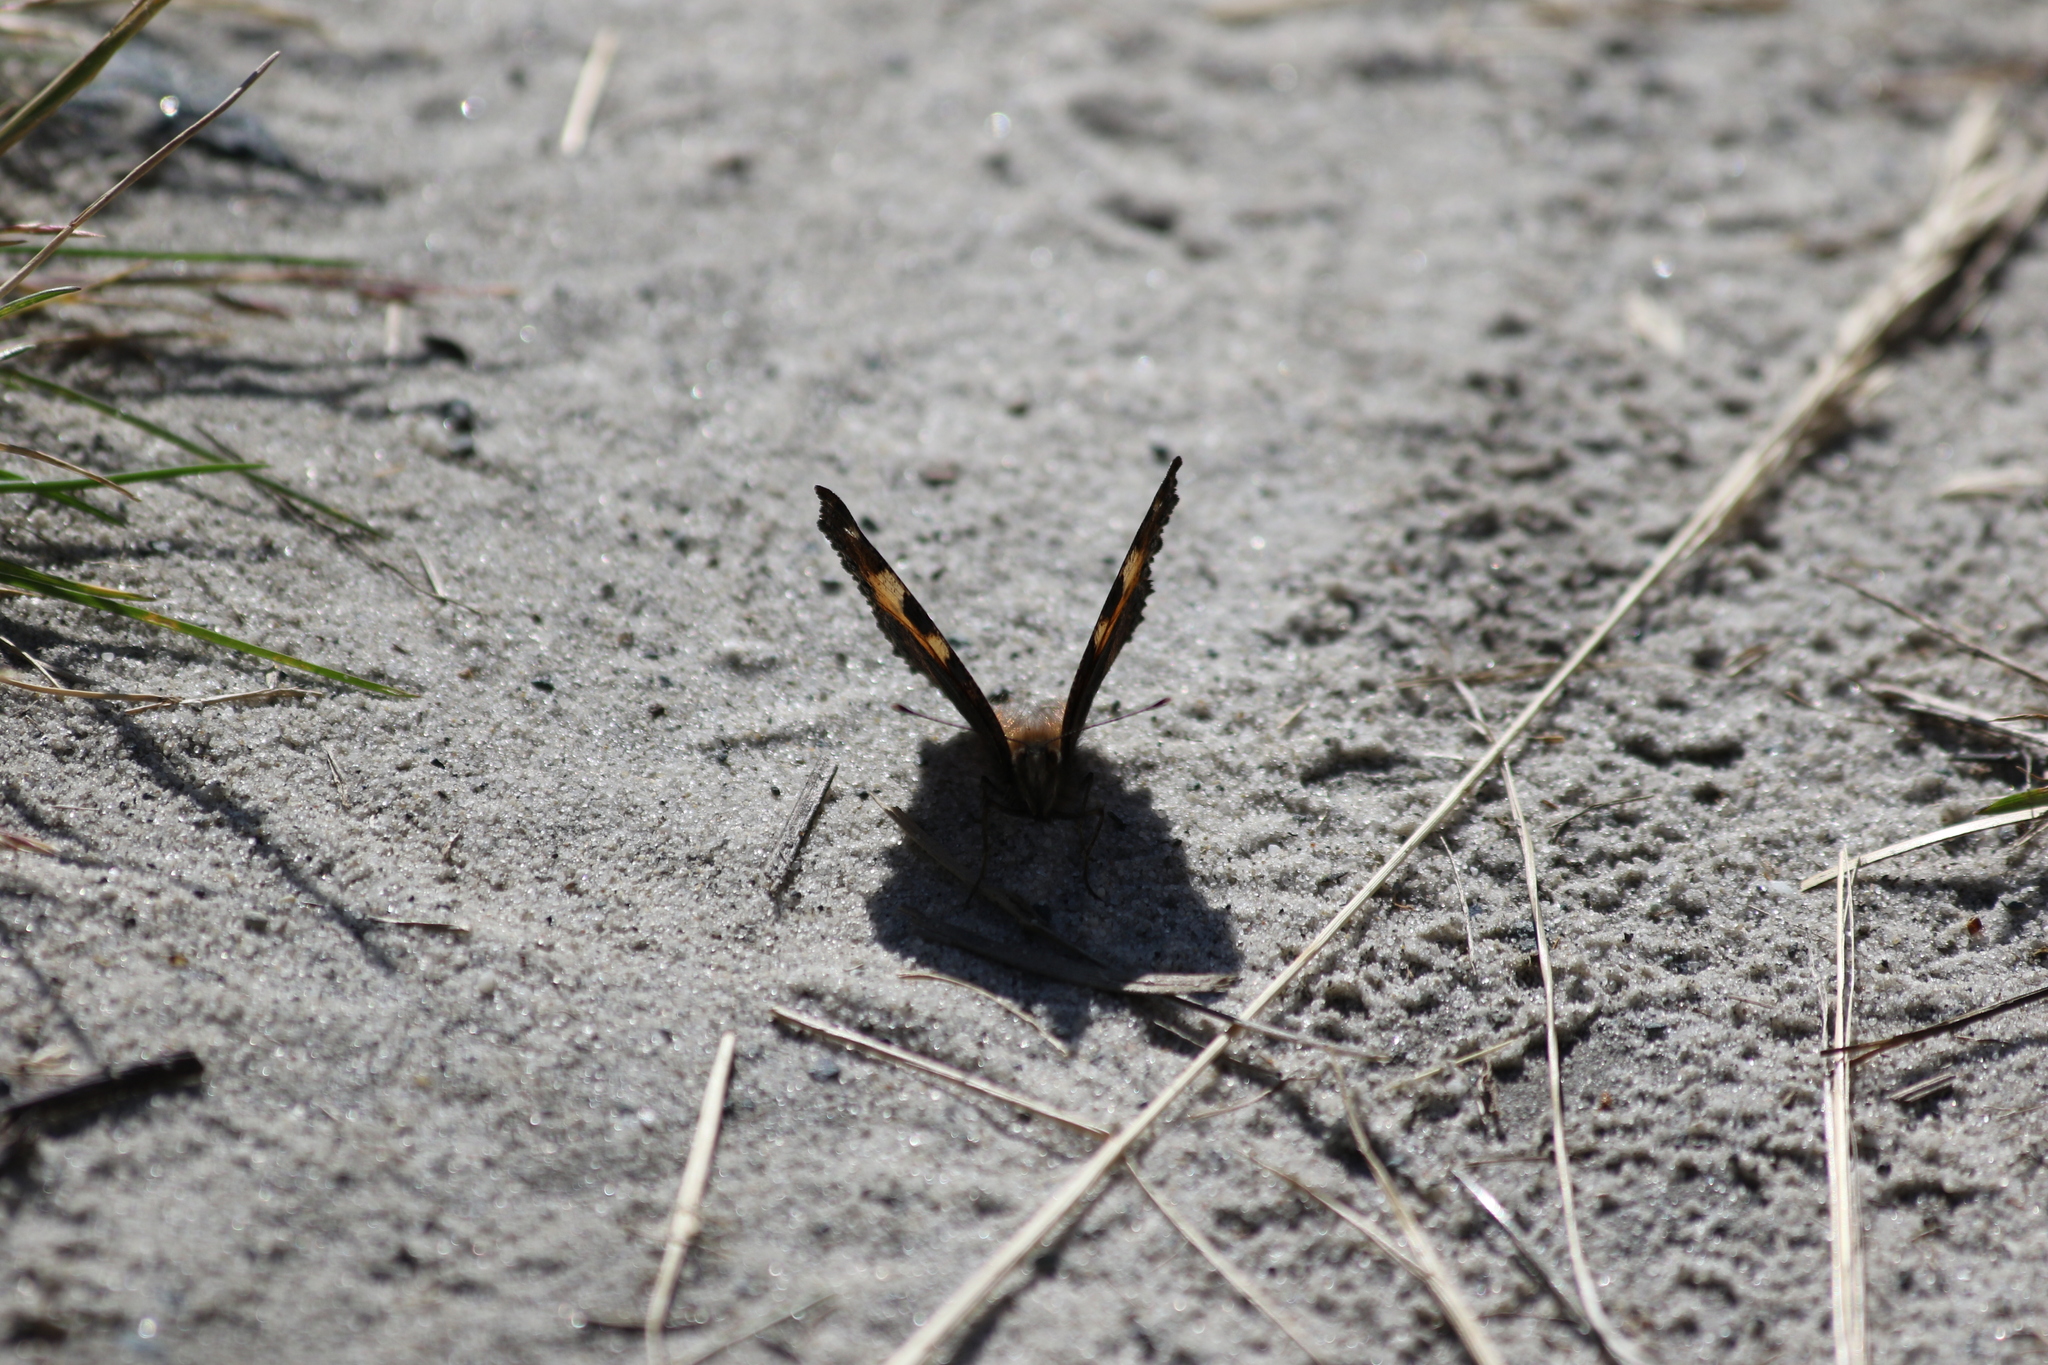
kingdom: Animalia
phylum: Arthropoda
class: Insecta
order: Lepidoptera
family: Nymphalidae
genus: Aglais
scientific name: Aglais urticae
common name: Small tortoiseshell
